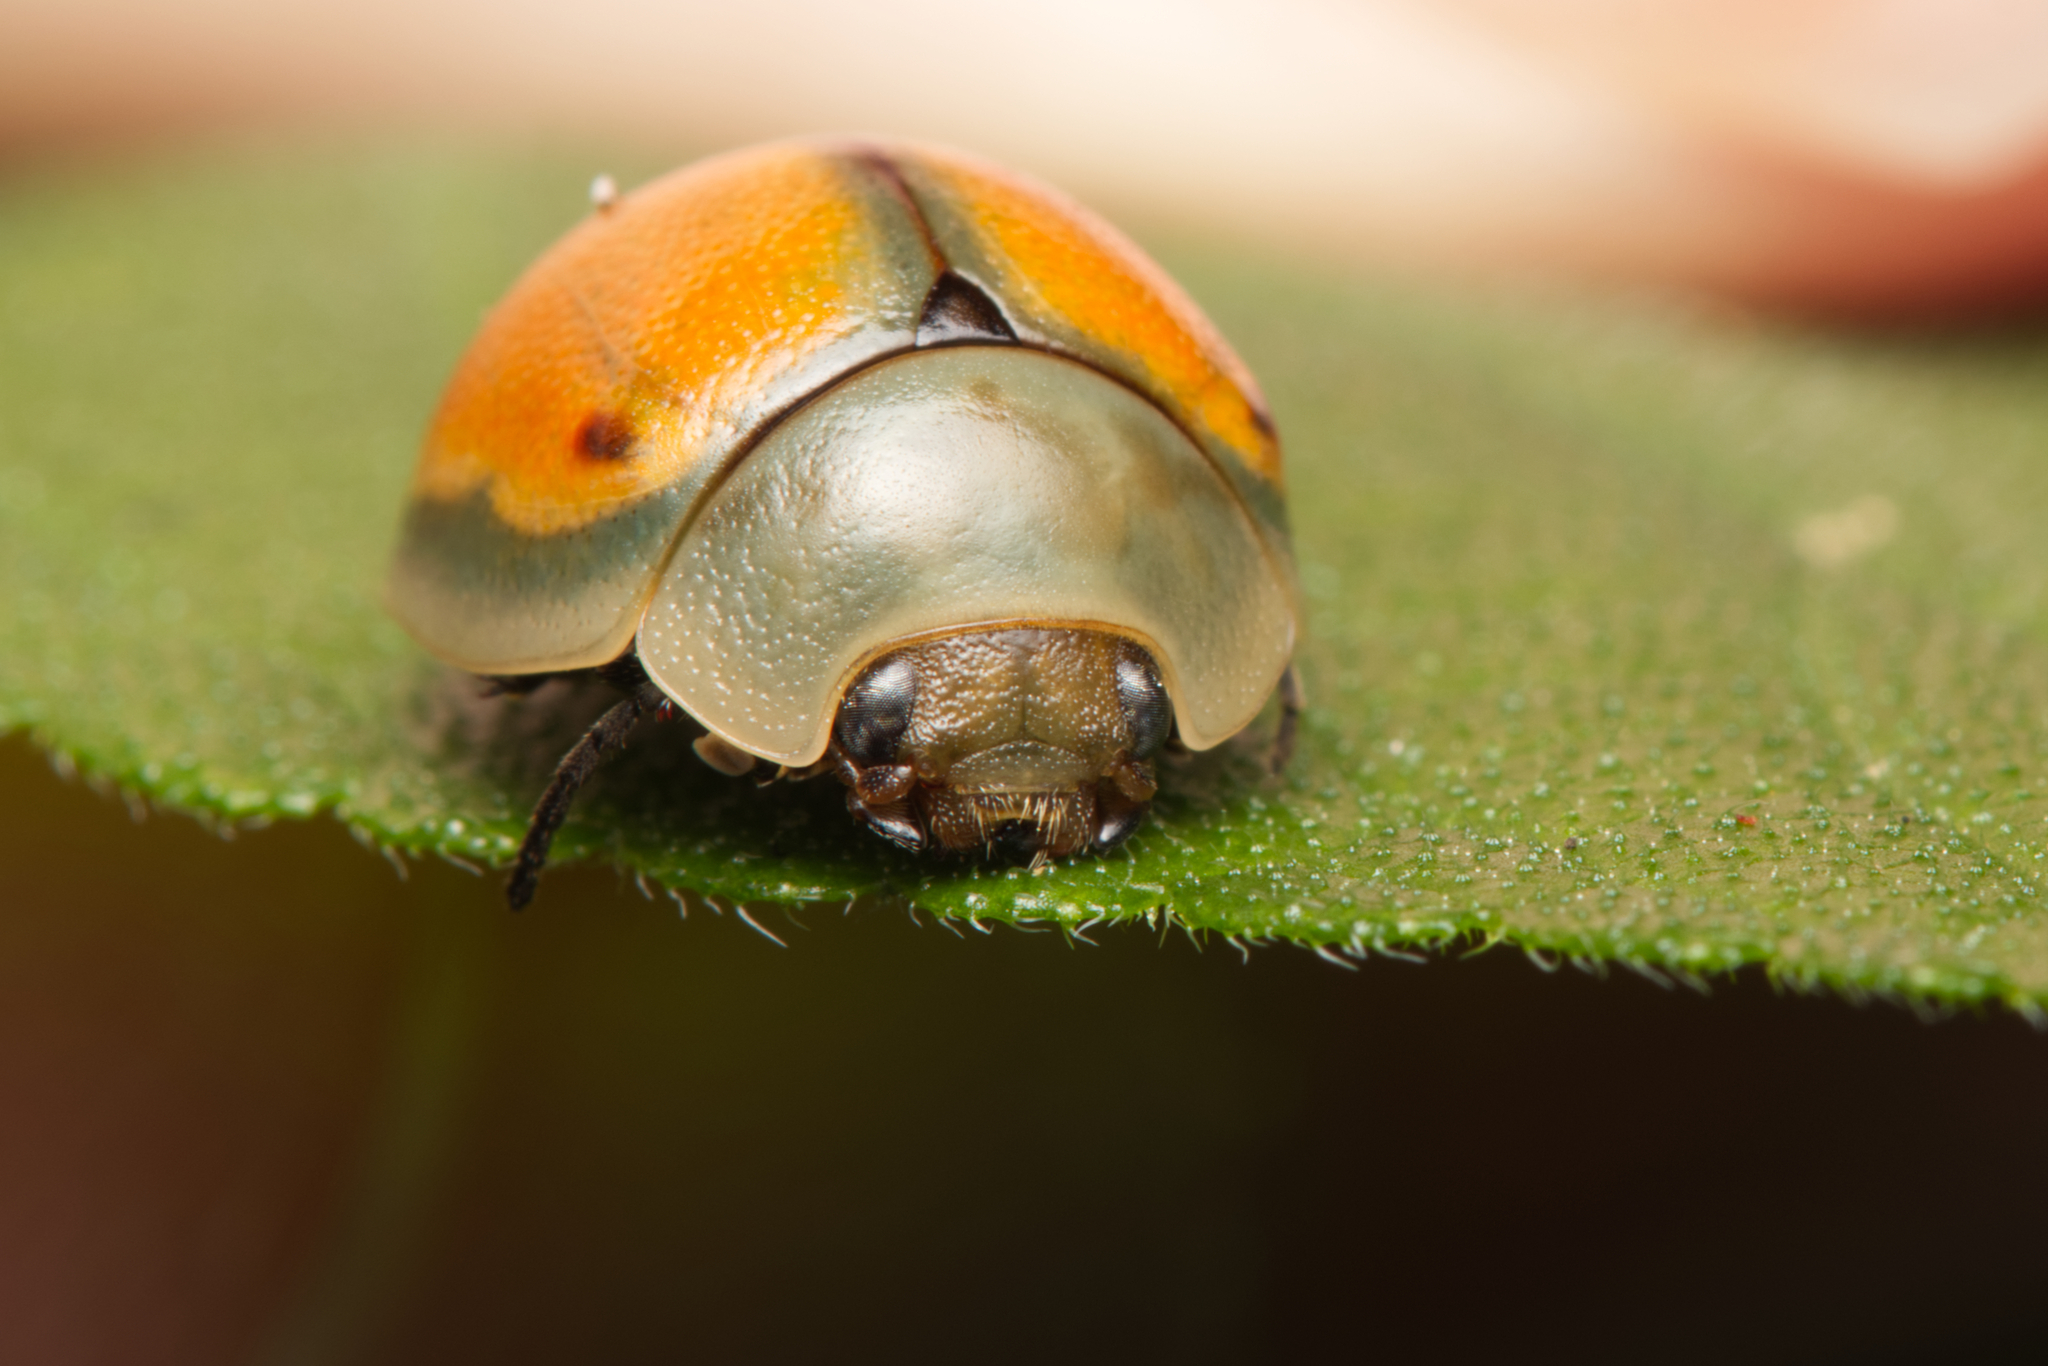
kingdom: Animalia
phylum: Arthropoda
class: Insecta
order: Coleoptera
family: Chrysomelidae
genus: Dicranosterna
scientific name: Dicranosterna
